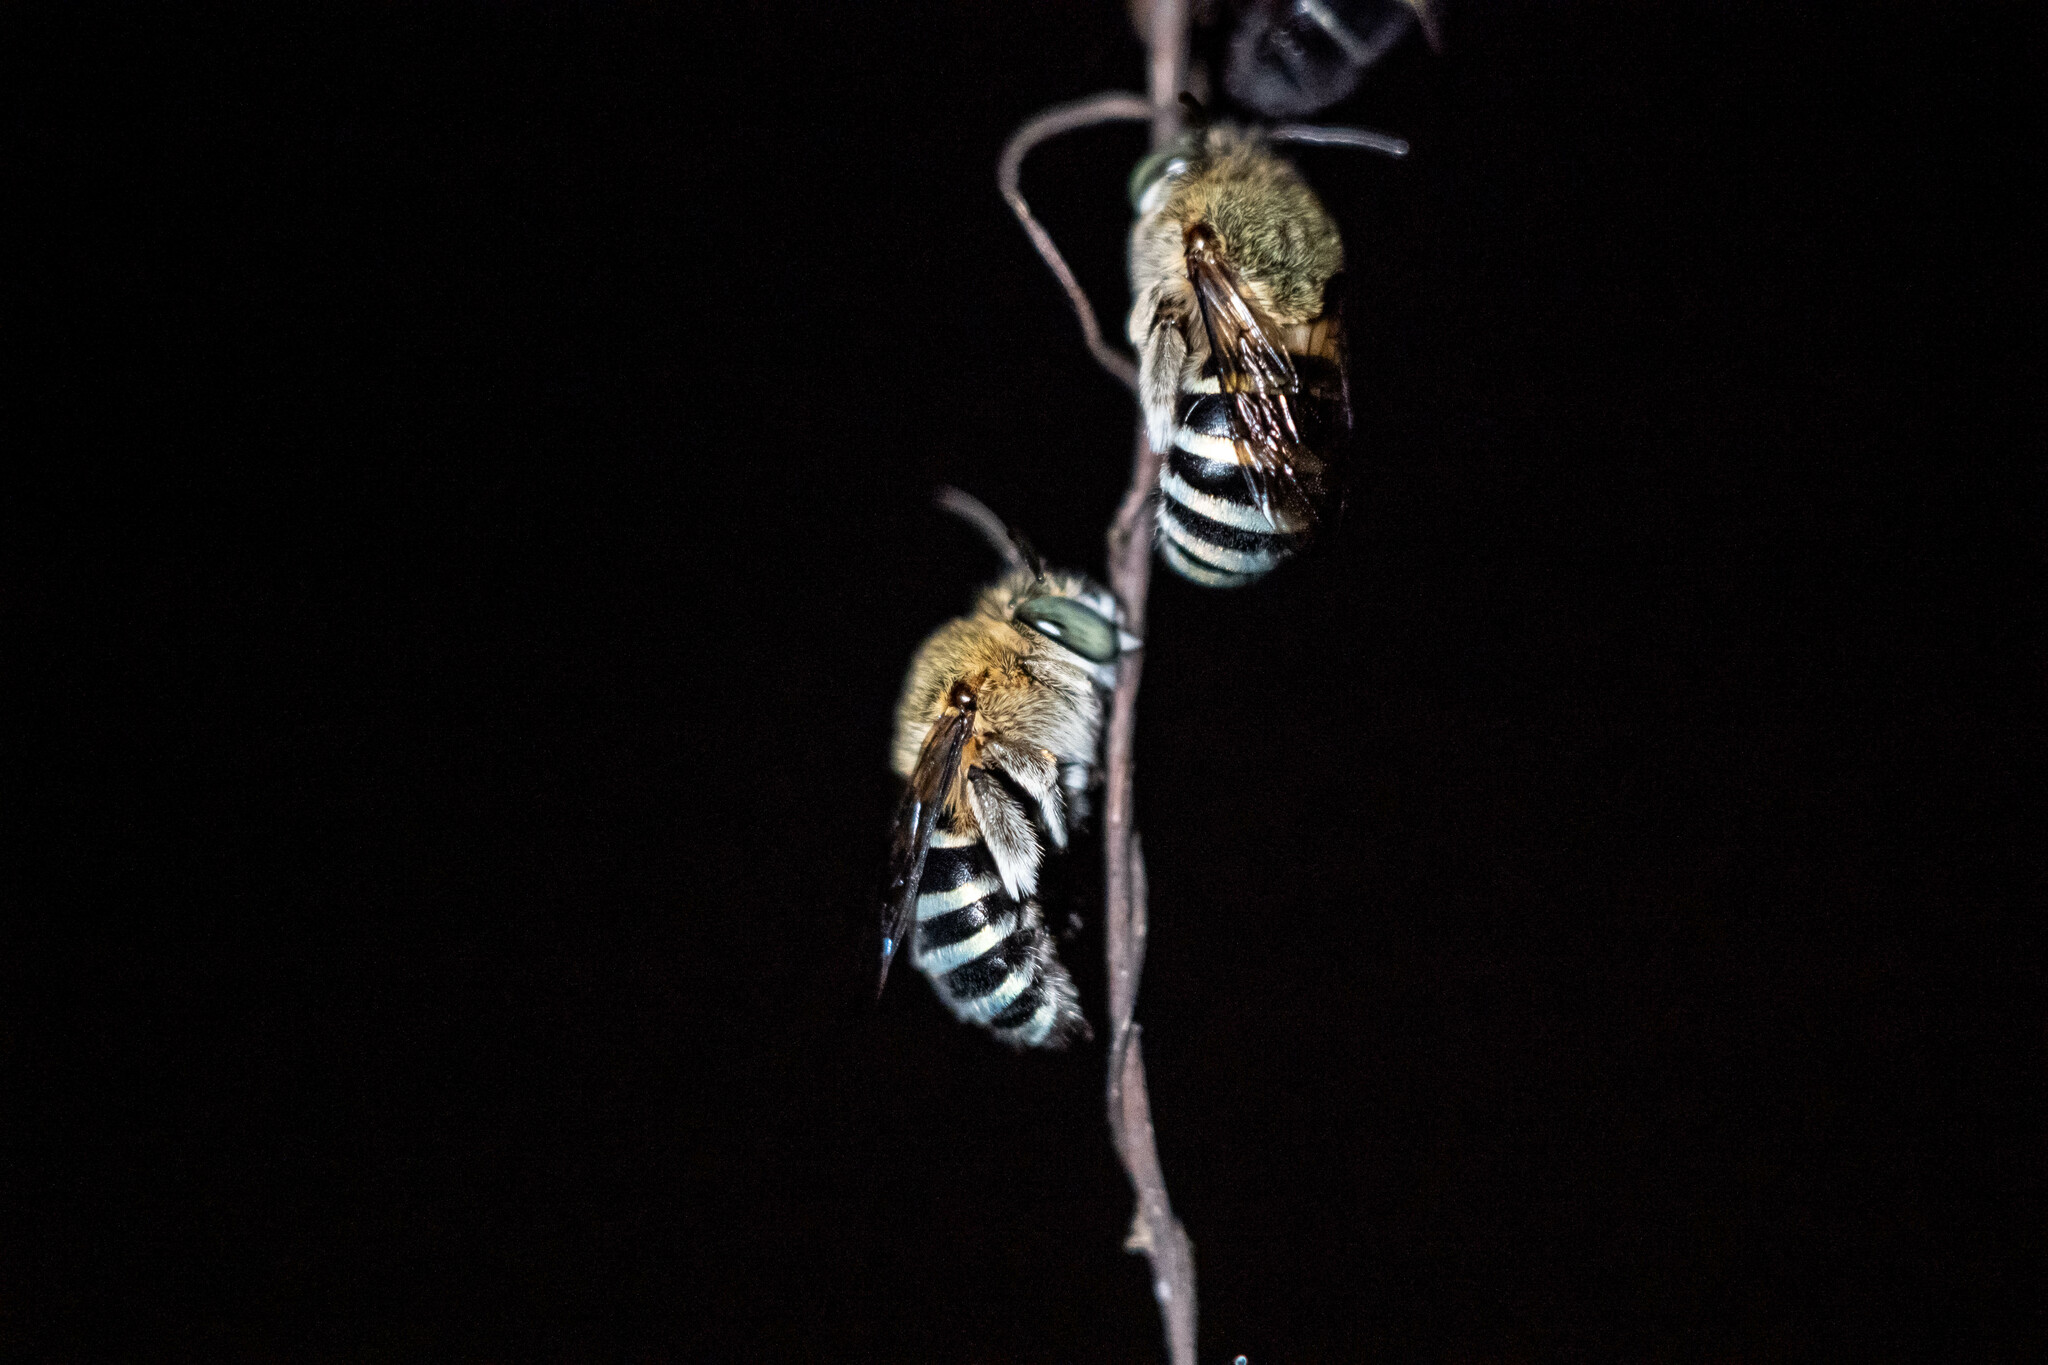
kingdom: Animalia
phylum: Arthropoda
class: Insecta
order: Hymenoptera
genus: Zonamegilla
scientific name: Zonamegilla
